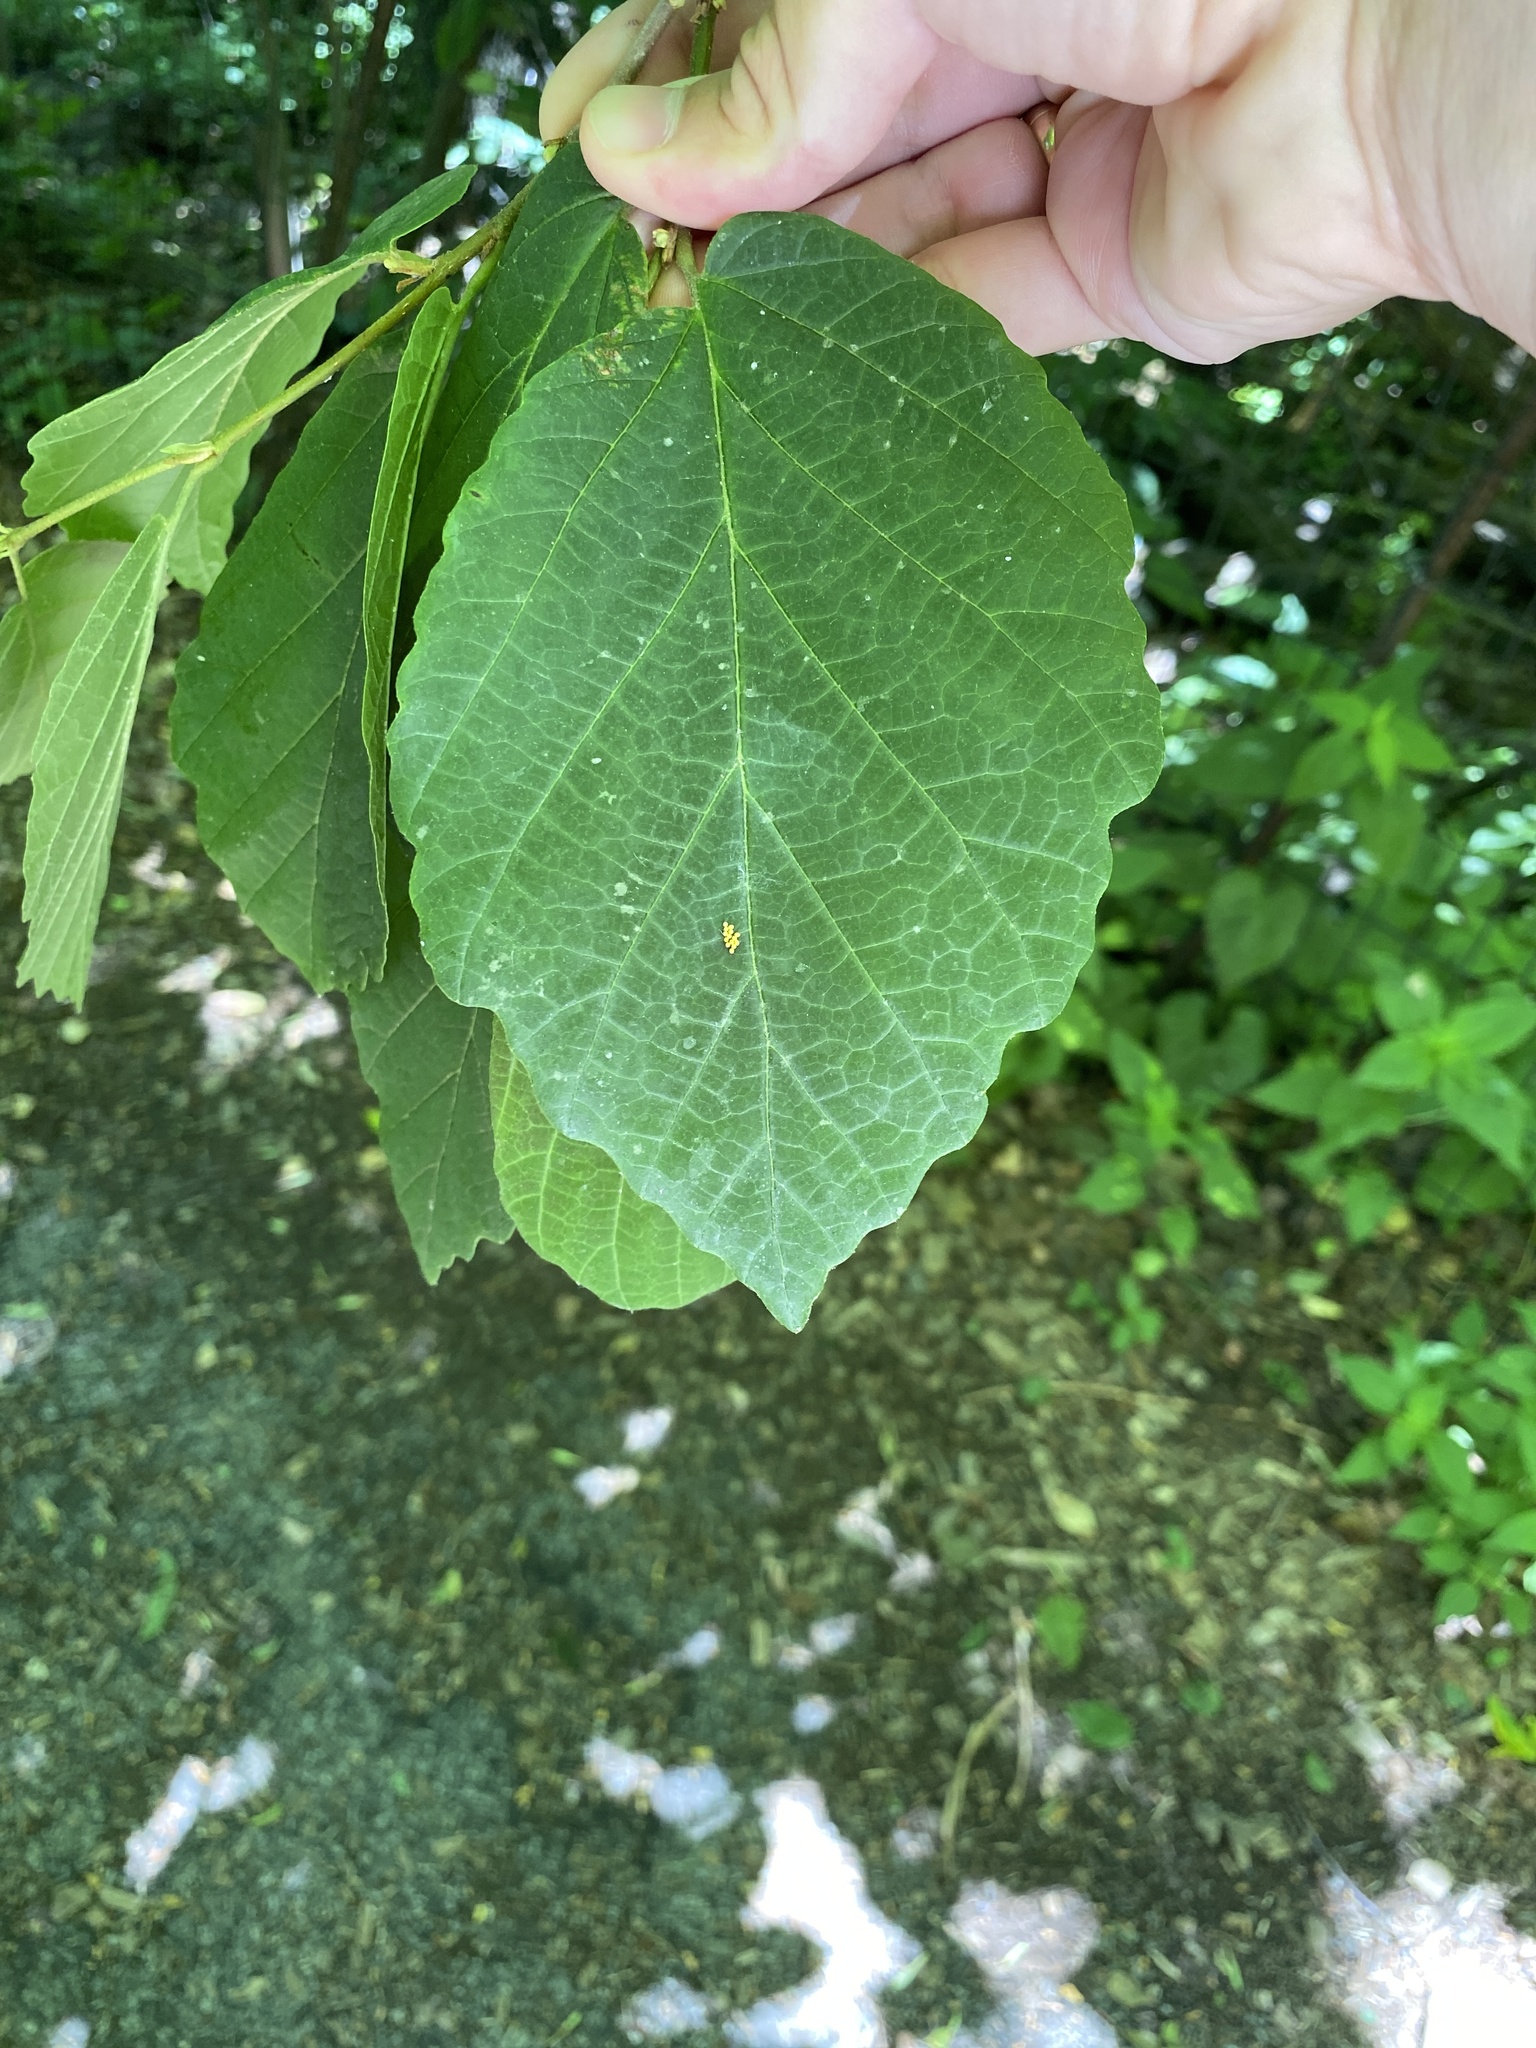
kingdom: Plantae
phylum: Tracheophyta
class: Magnoliopsida
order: Saxifragales
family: Hamamelidaceae
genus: Hamamelis
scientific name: Hamamelis virginiana
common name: Witch-hazel
